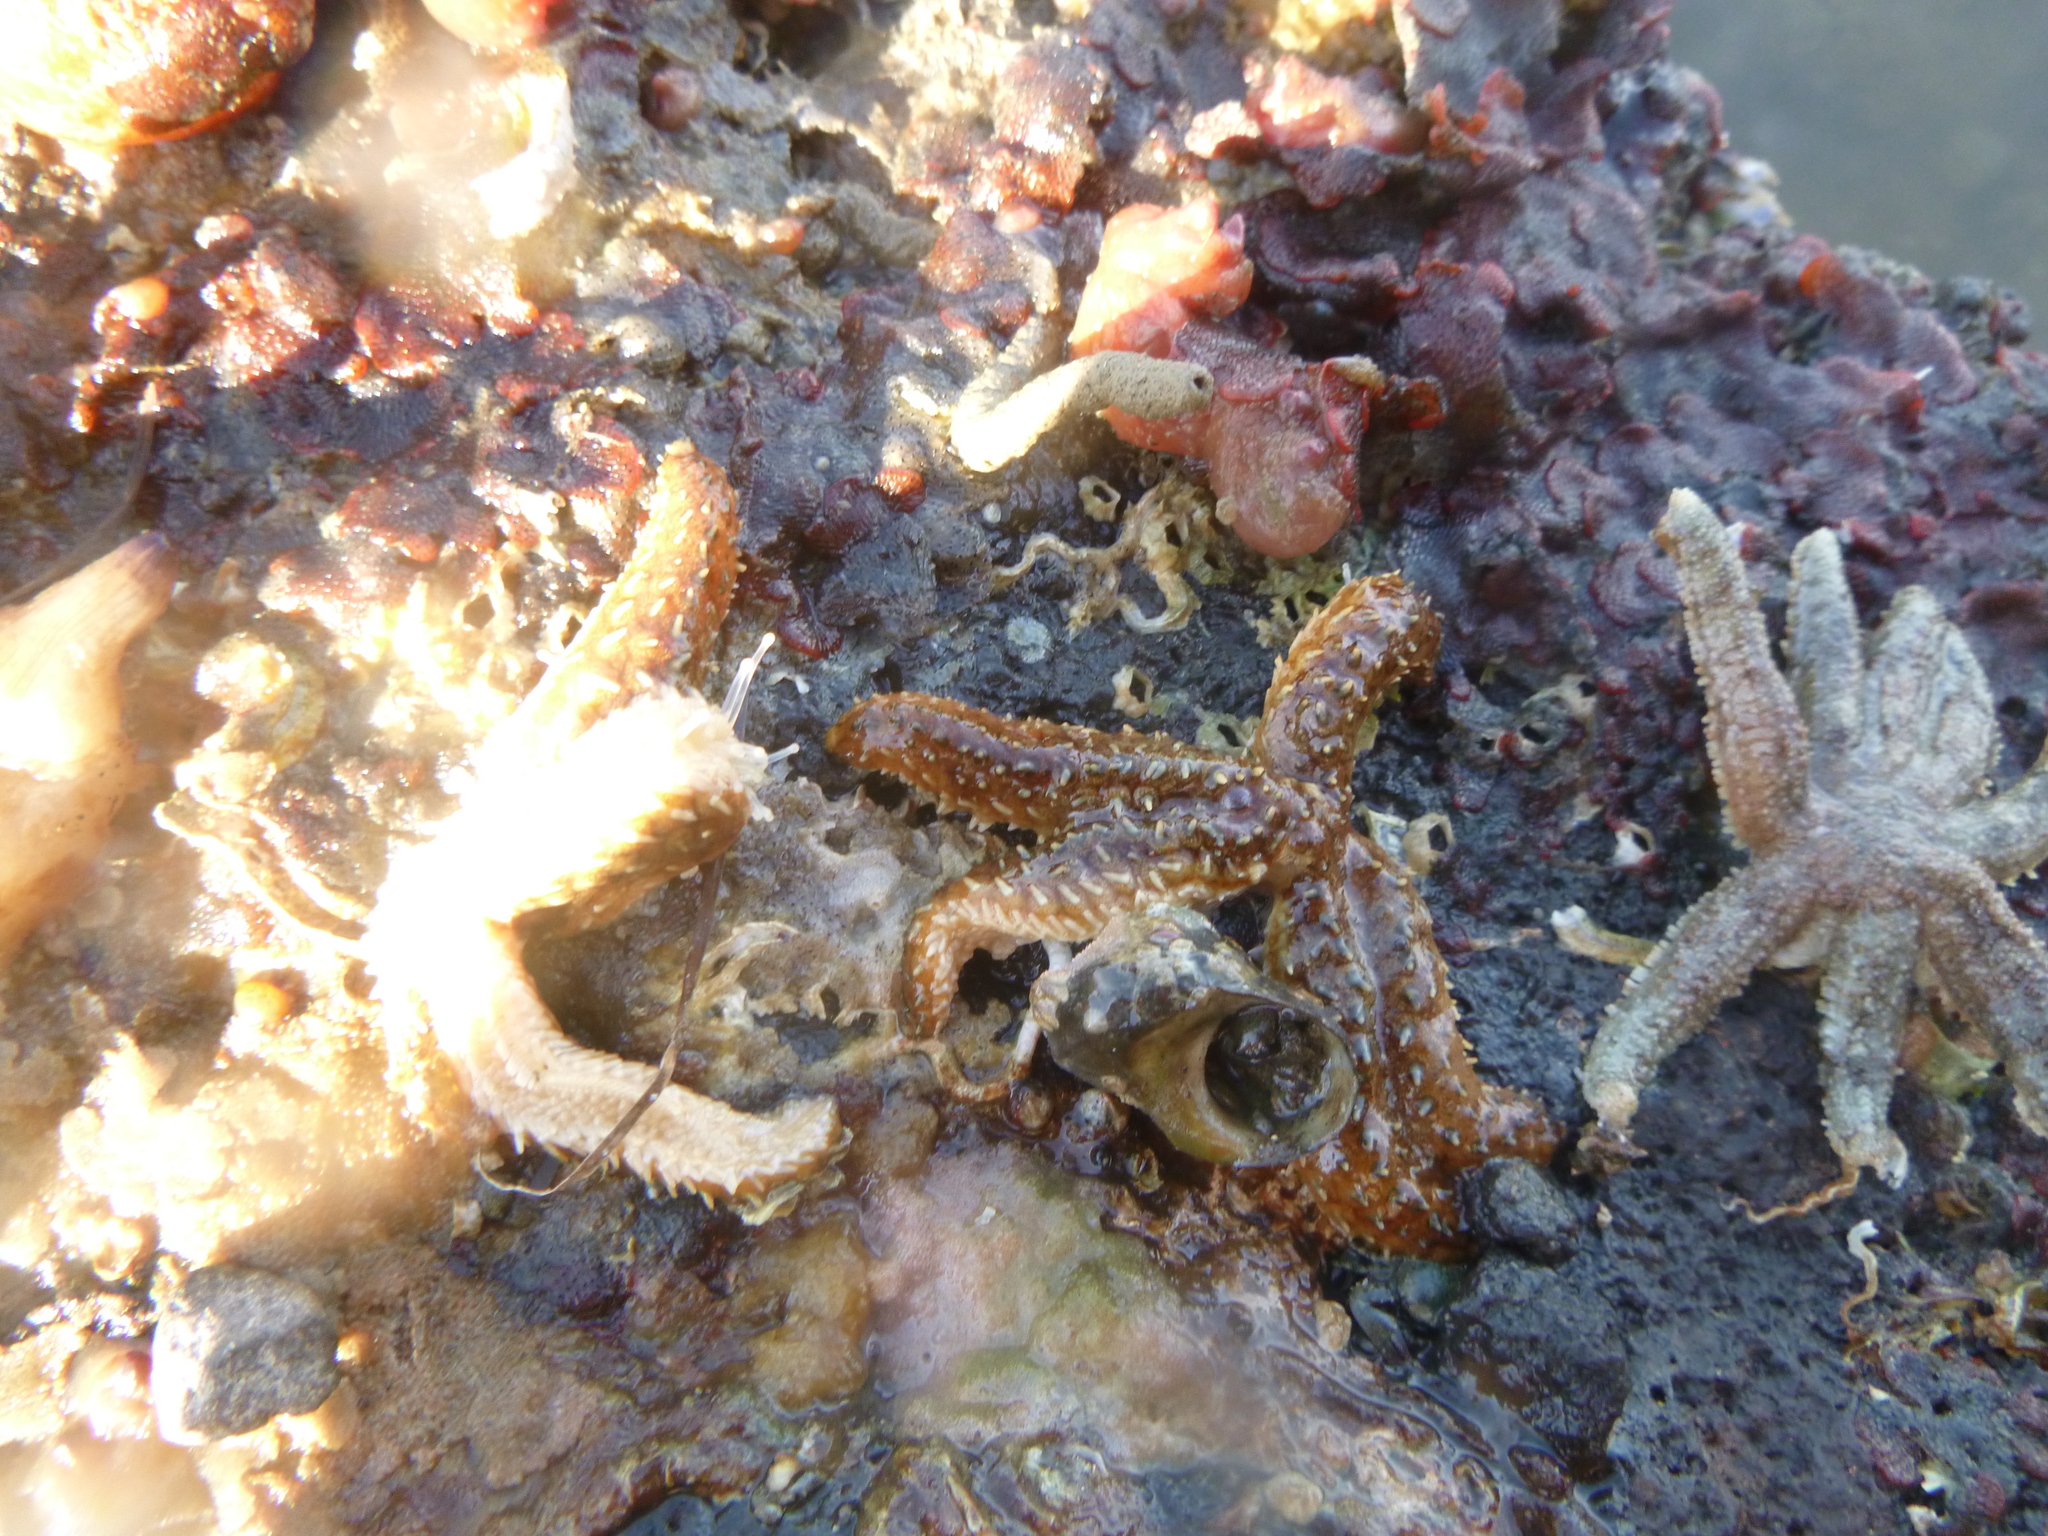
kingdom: Animalia
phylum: Echinodermata
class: Asteroidea
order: Forcipulatida
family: Asteriidae
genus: Coscinasterias
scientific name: Coscinasterias muricata
